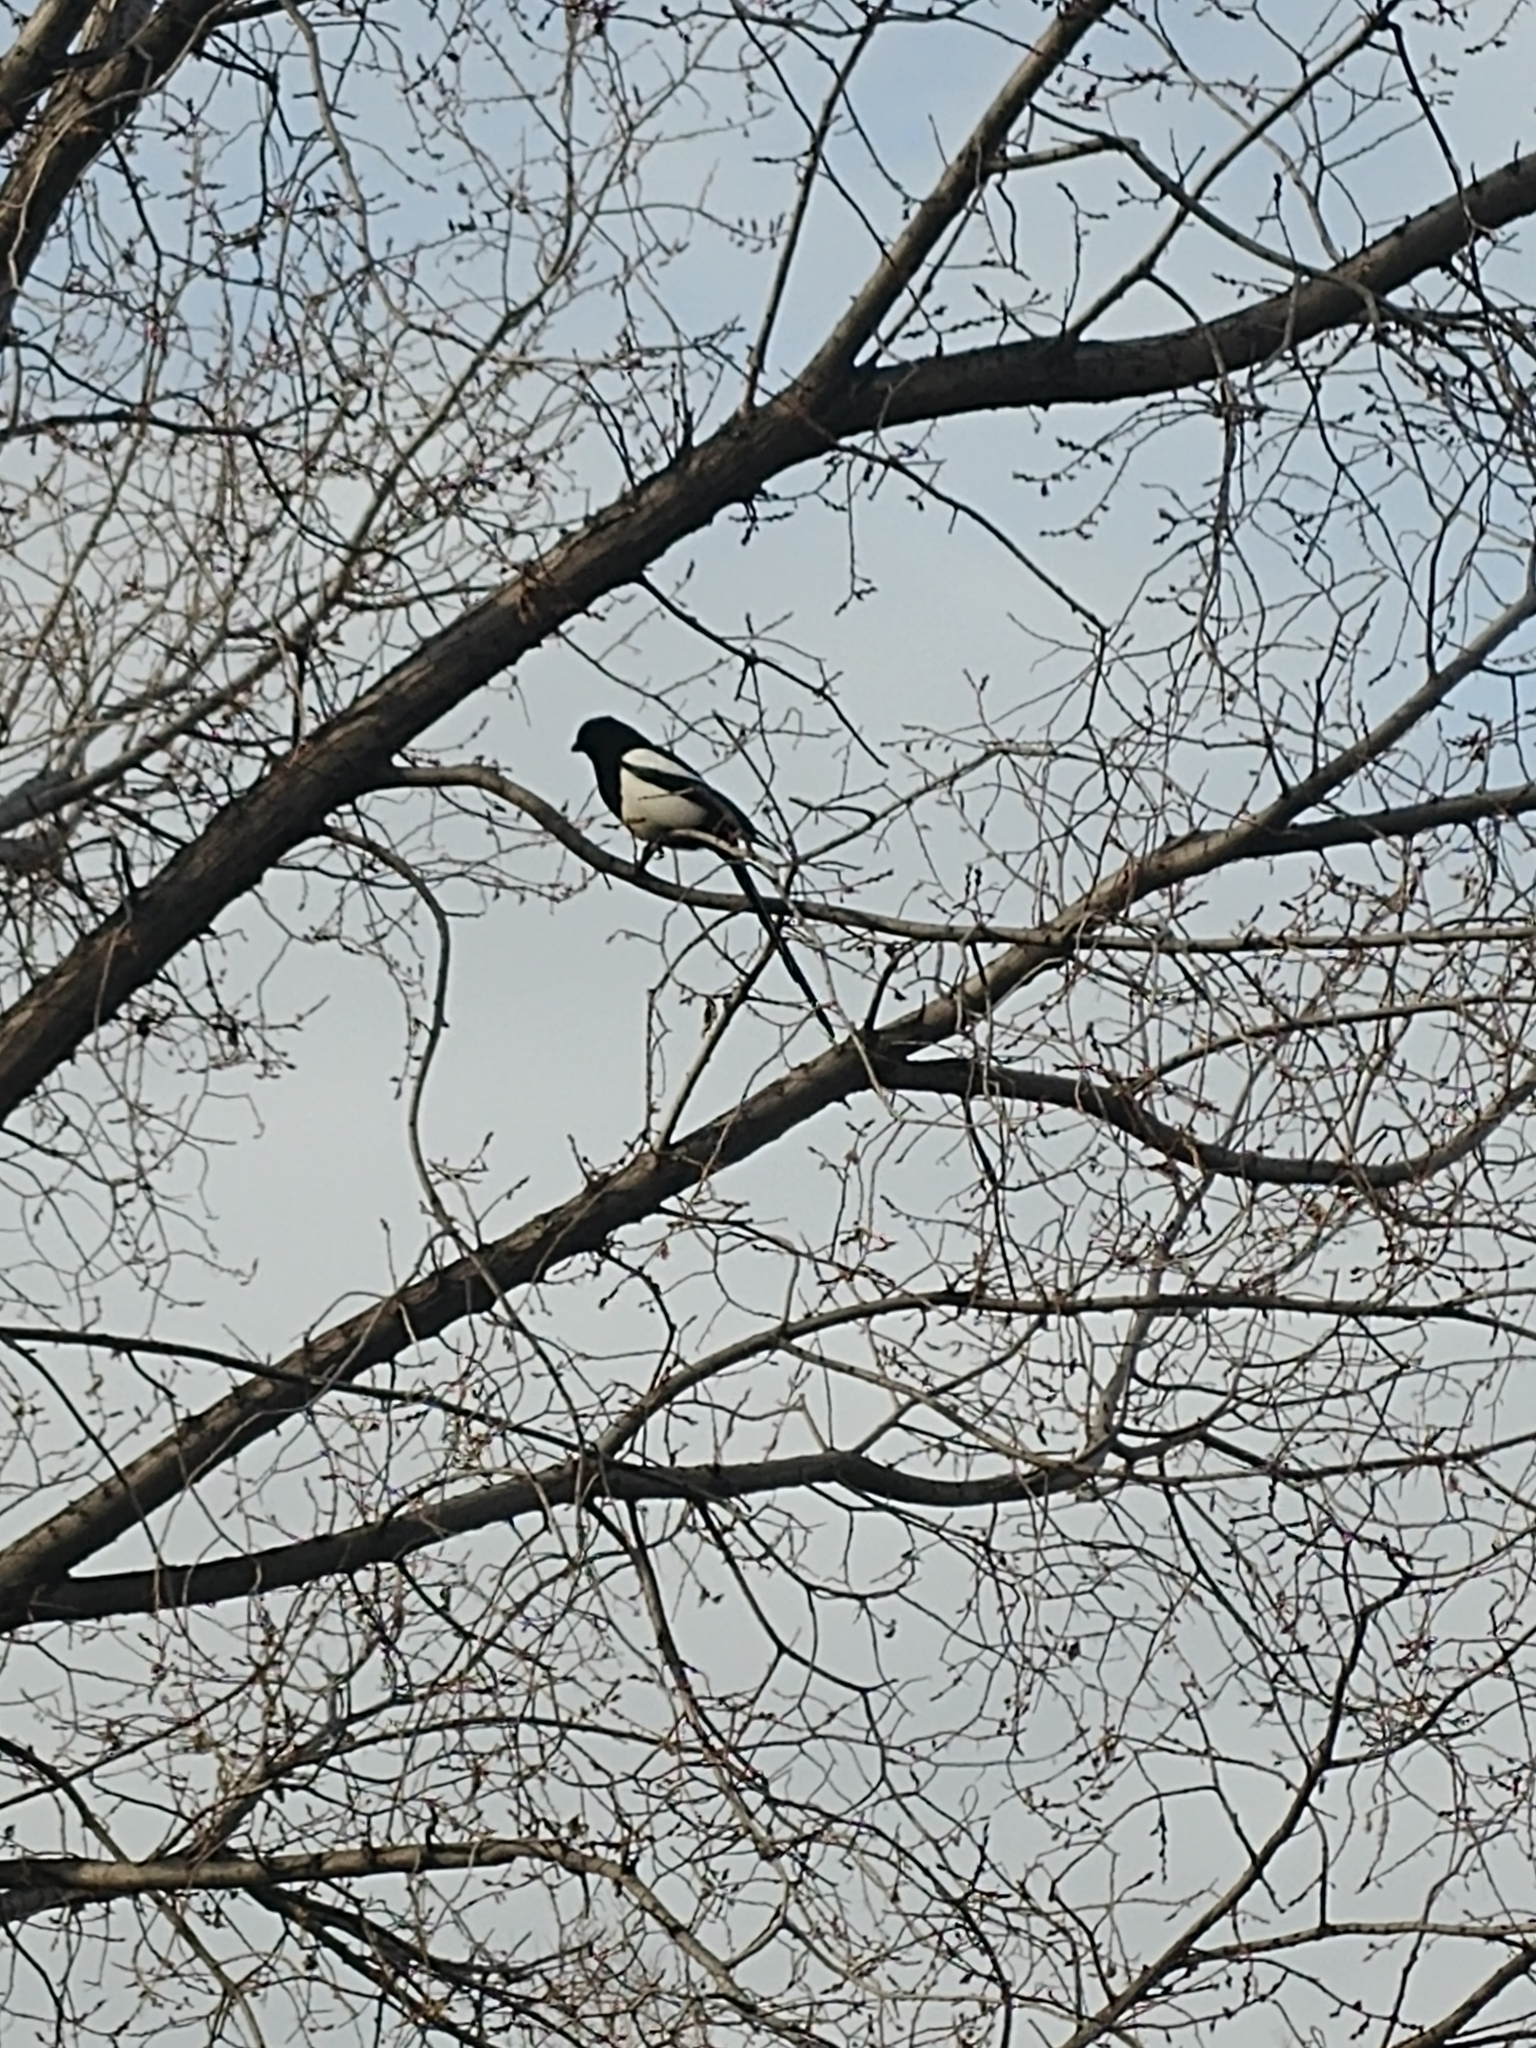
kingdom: Animalia
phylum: Chordata
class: Aves
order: Passeriformes
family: Corvidae
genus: Pica
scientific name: Pica hudsonia
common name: Black-billed magpie
